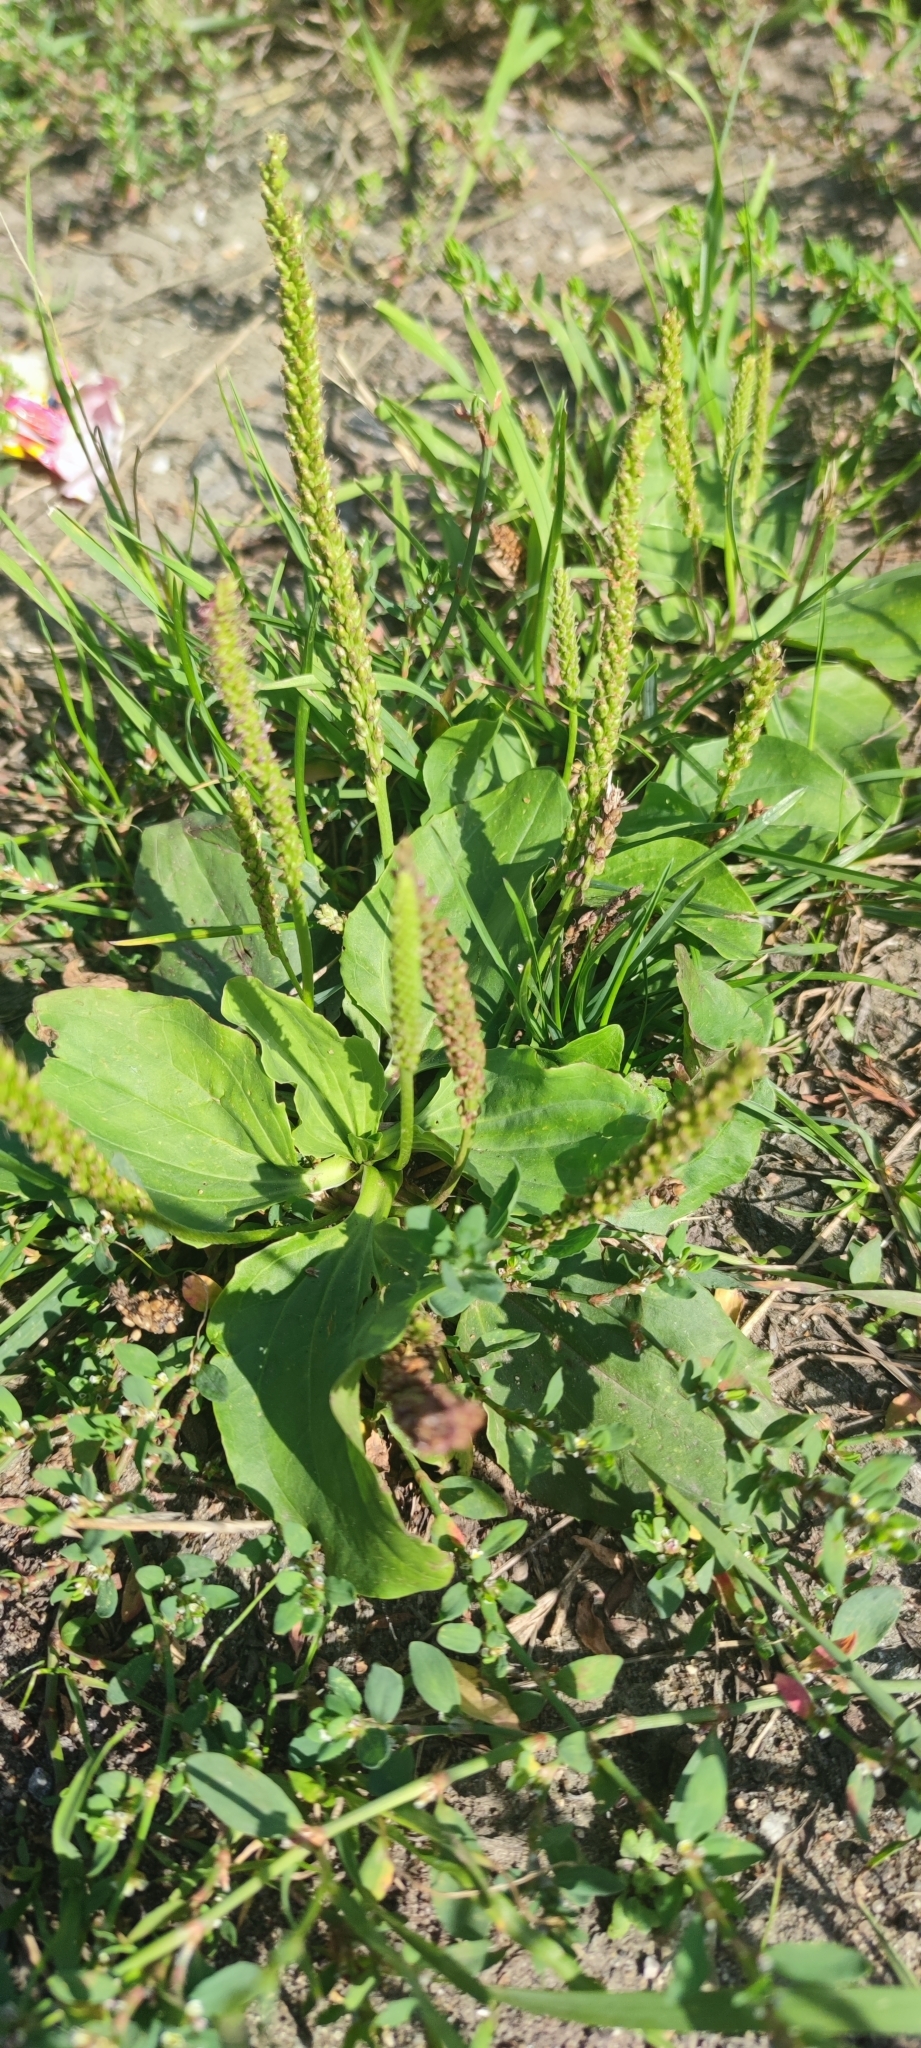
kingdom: Plantae
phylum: Tracheophyta
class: Magnoliopsida
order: Lamiales
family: Plantaginaceae
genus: Plantago
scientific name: Plantago major
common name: Common plantain
